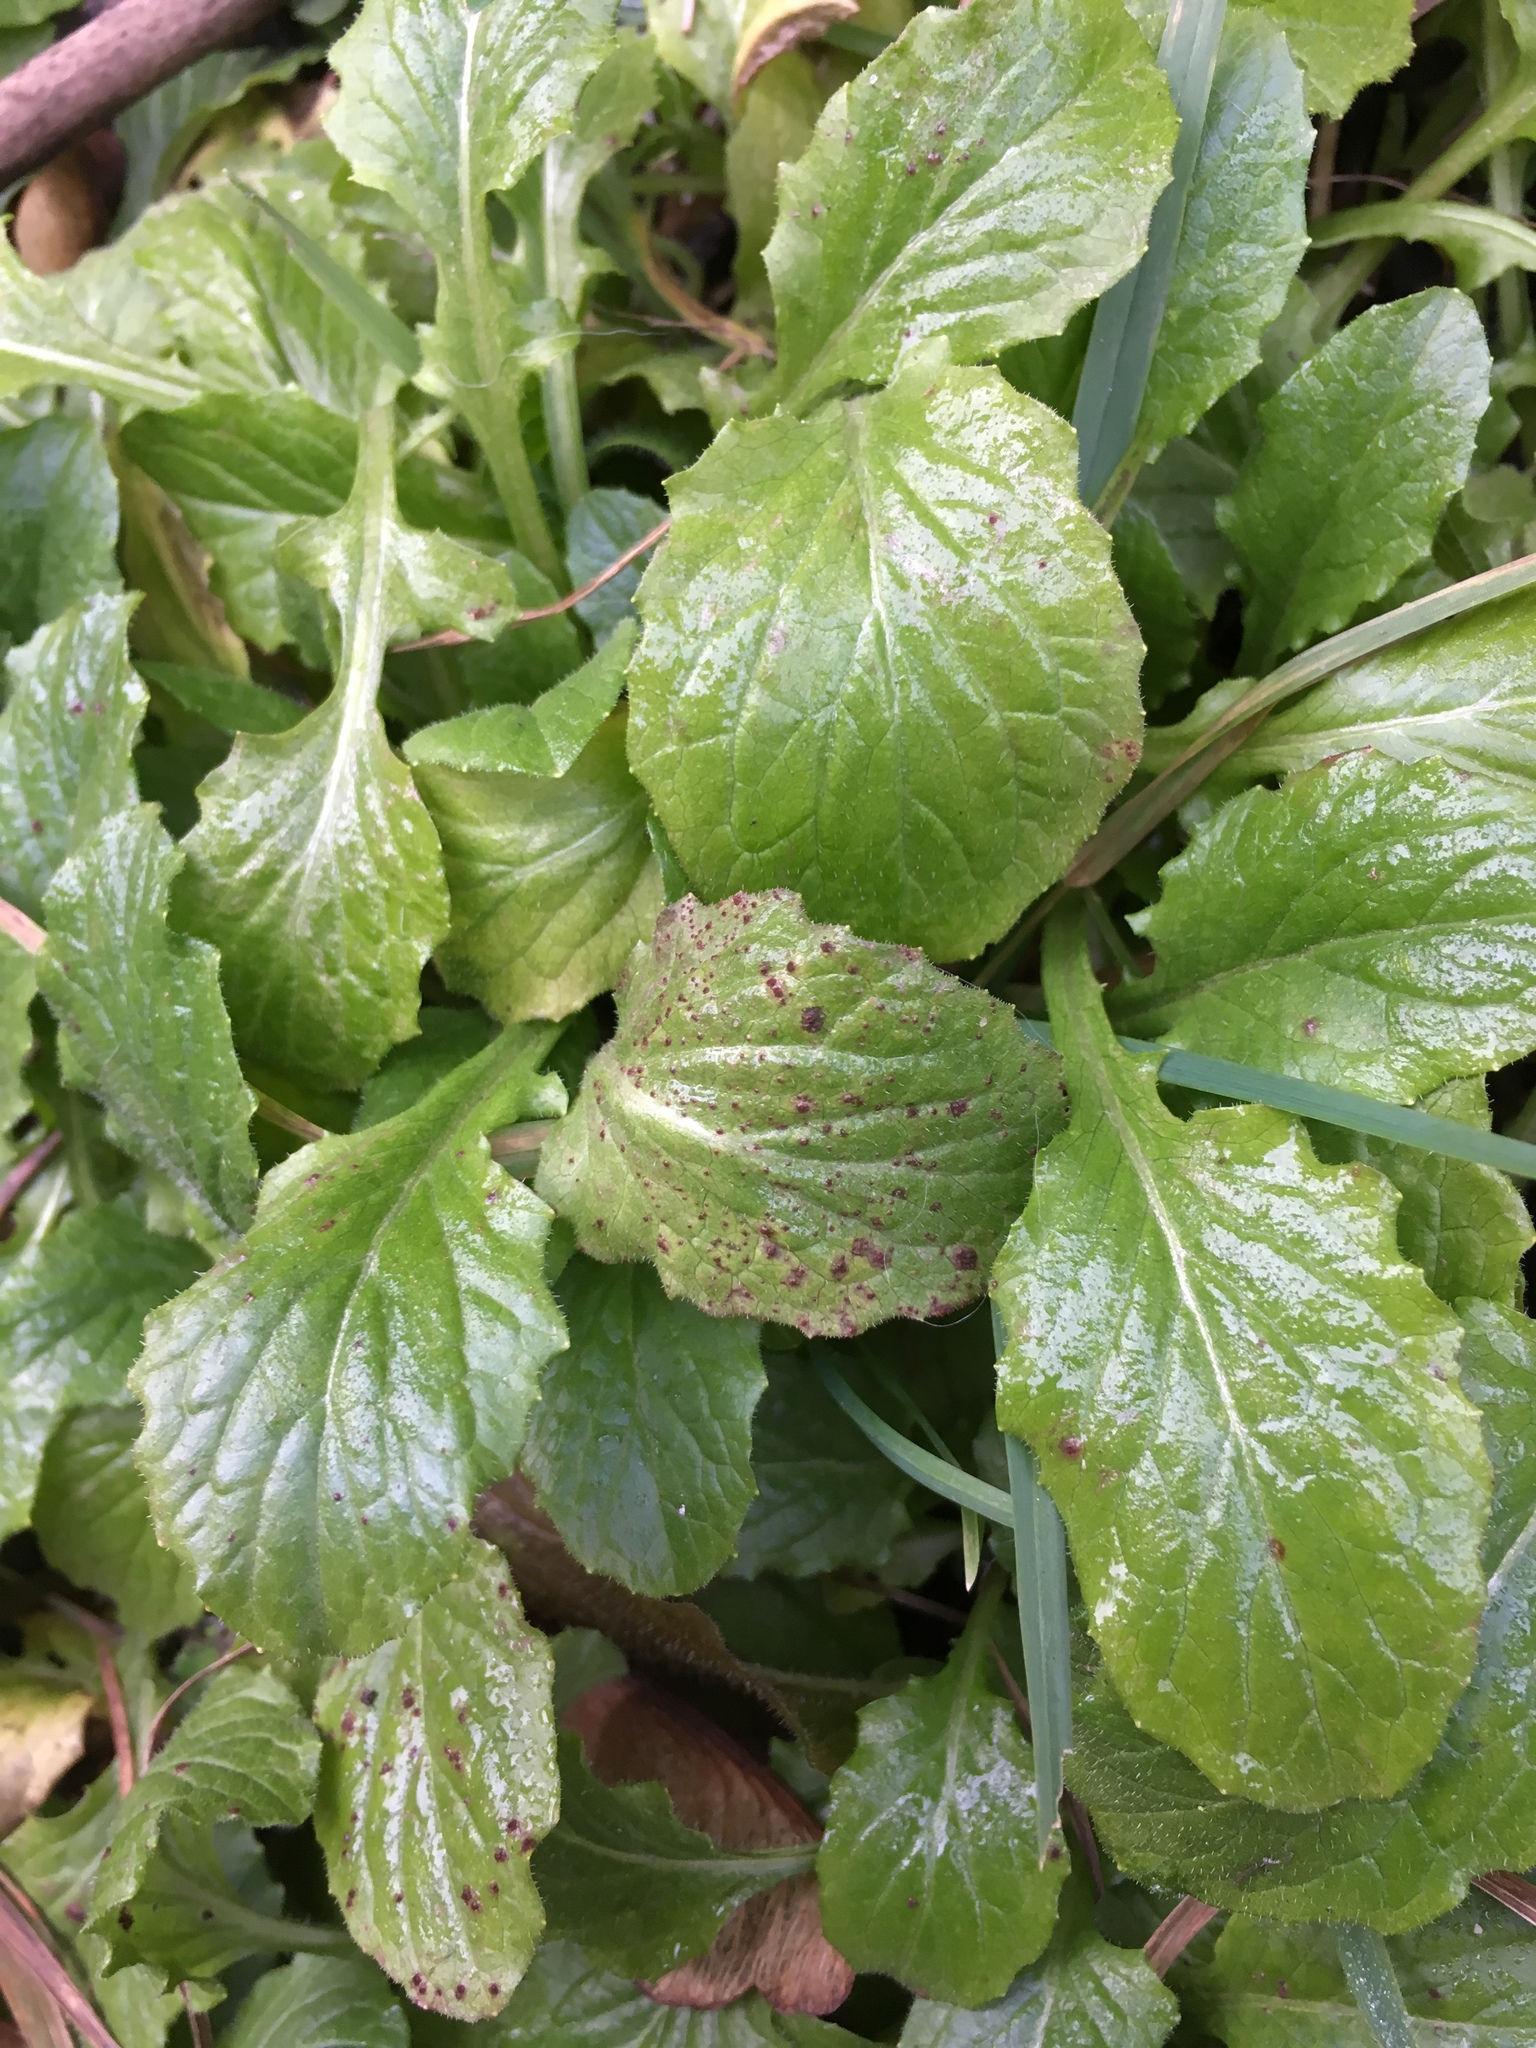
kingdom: Plantae
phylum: Tracheophyta
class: Magnoliopsida
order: Lamiales
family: Lamiaceae
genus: Ajuga
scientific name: Ajuga reptans
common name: Bugle
